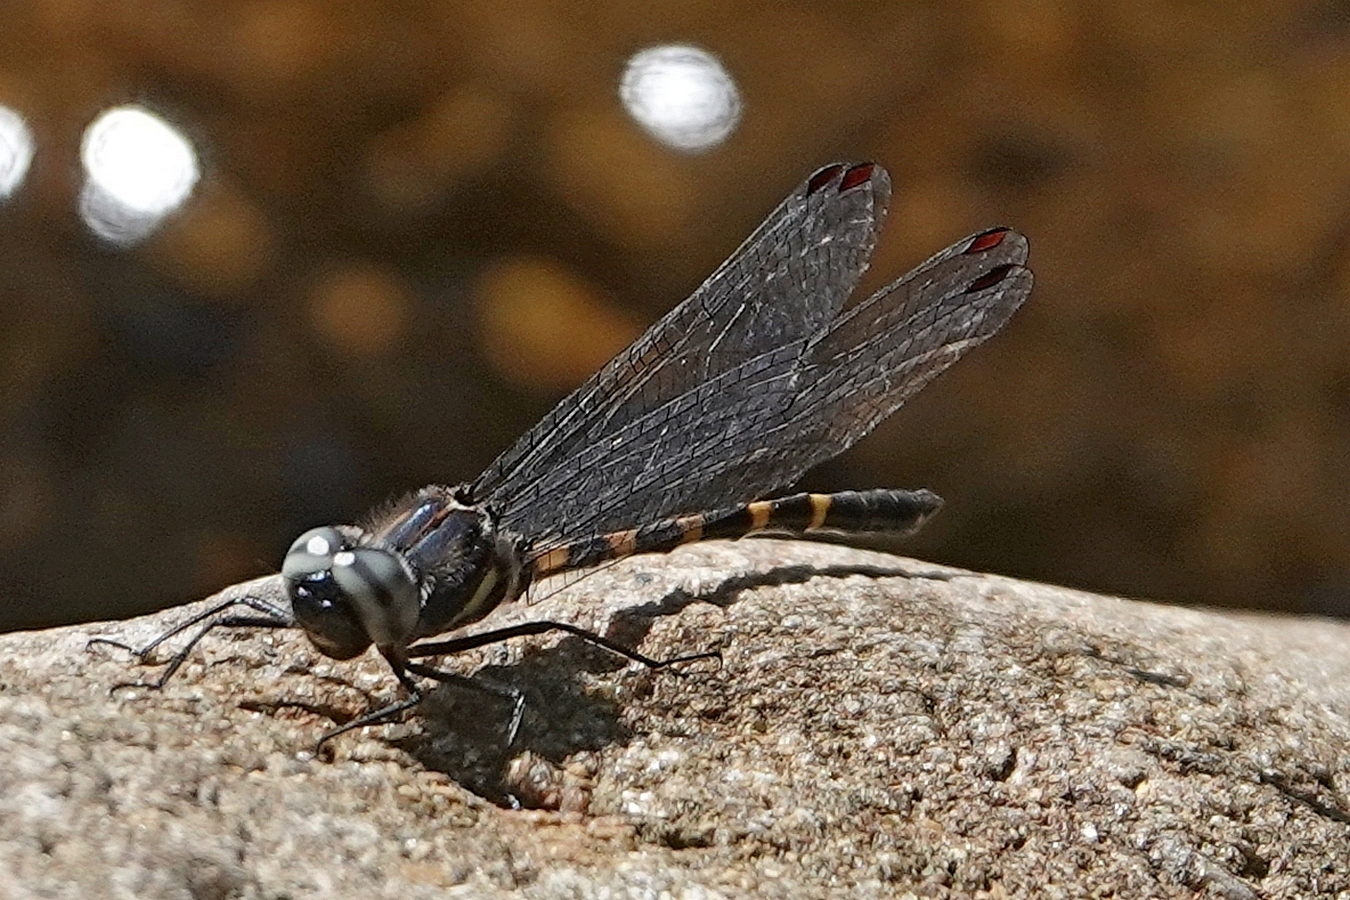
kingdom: Animalia
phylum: Arthropoda
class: Insecta
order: Odonata
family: Corduliidae
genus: Cordulephya
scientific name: Cordulephya pygmaea
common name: Common shutwing
